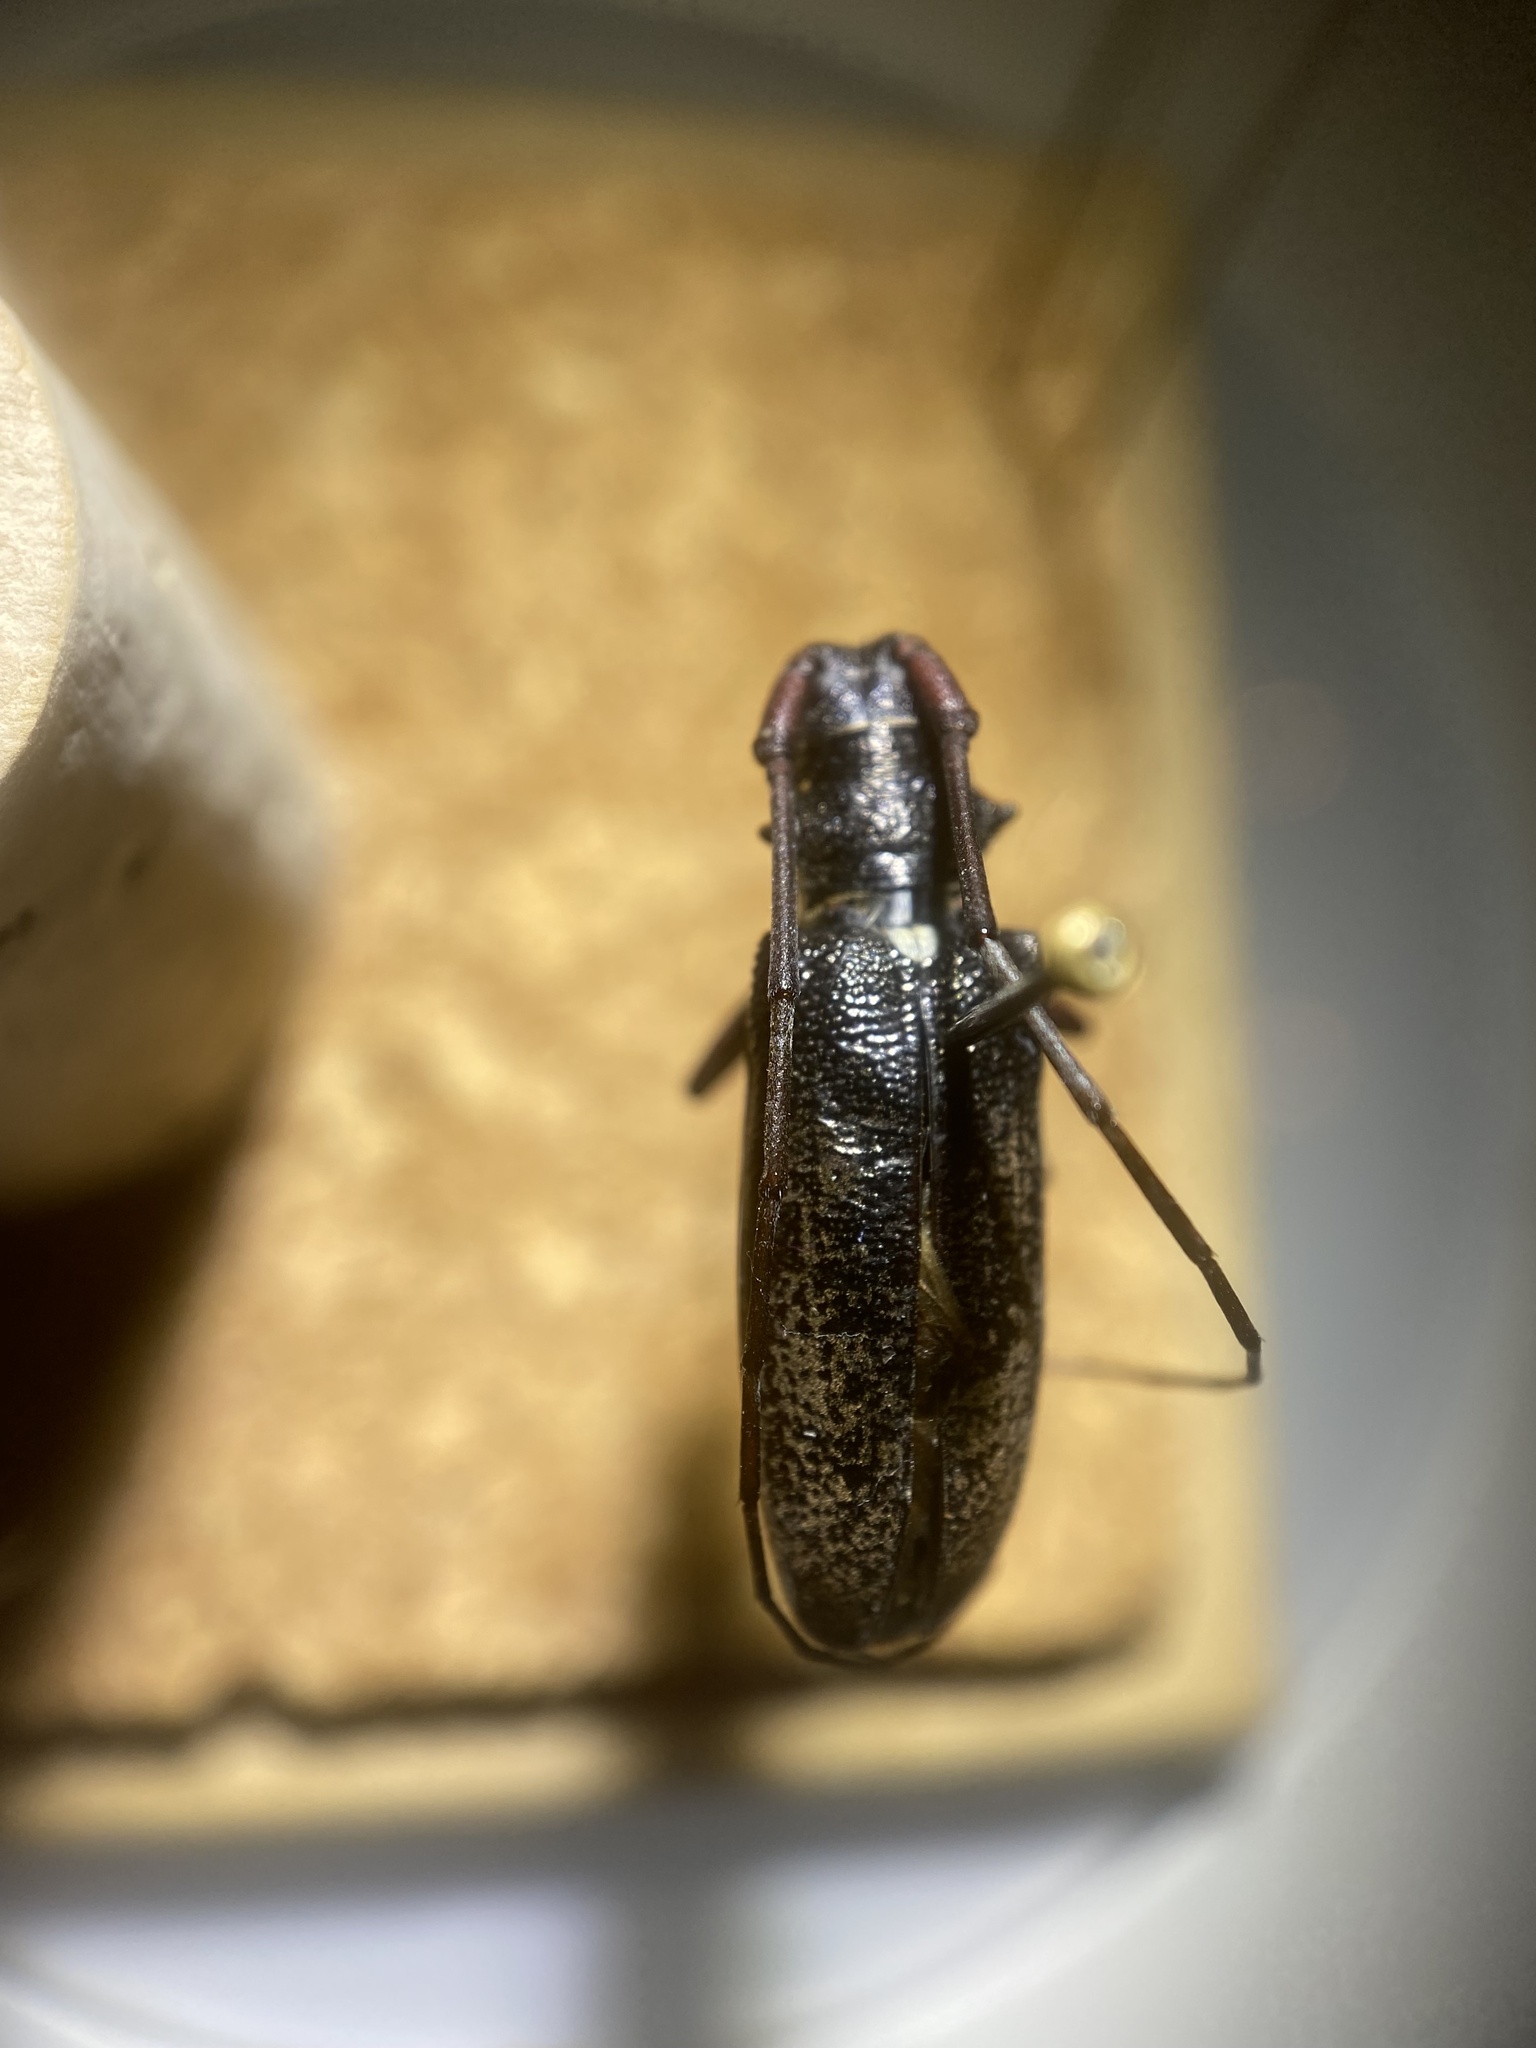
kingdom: Animalia
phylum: Arthropoda
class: Insecta
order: Coleoptera
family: Cerambycidae
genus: Monochamus
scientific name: Monochamus scutellatus
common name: White-spotted sawyer beetle
